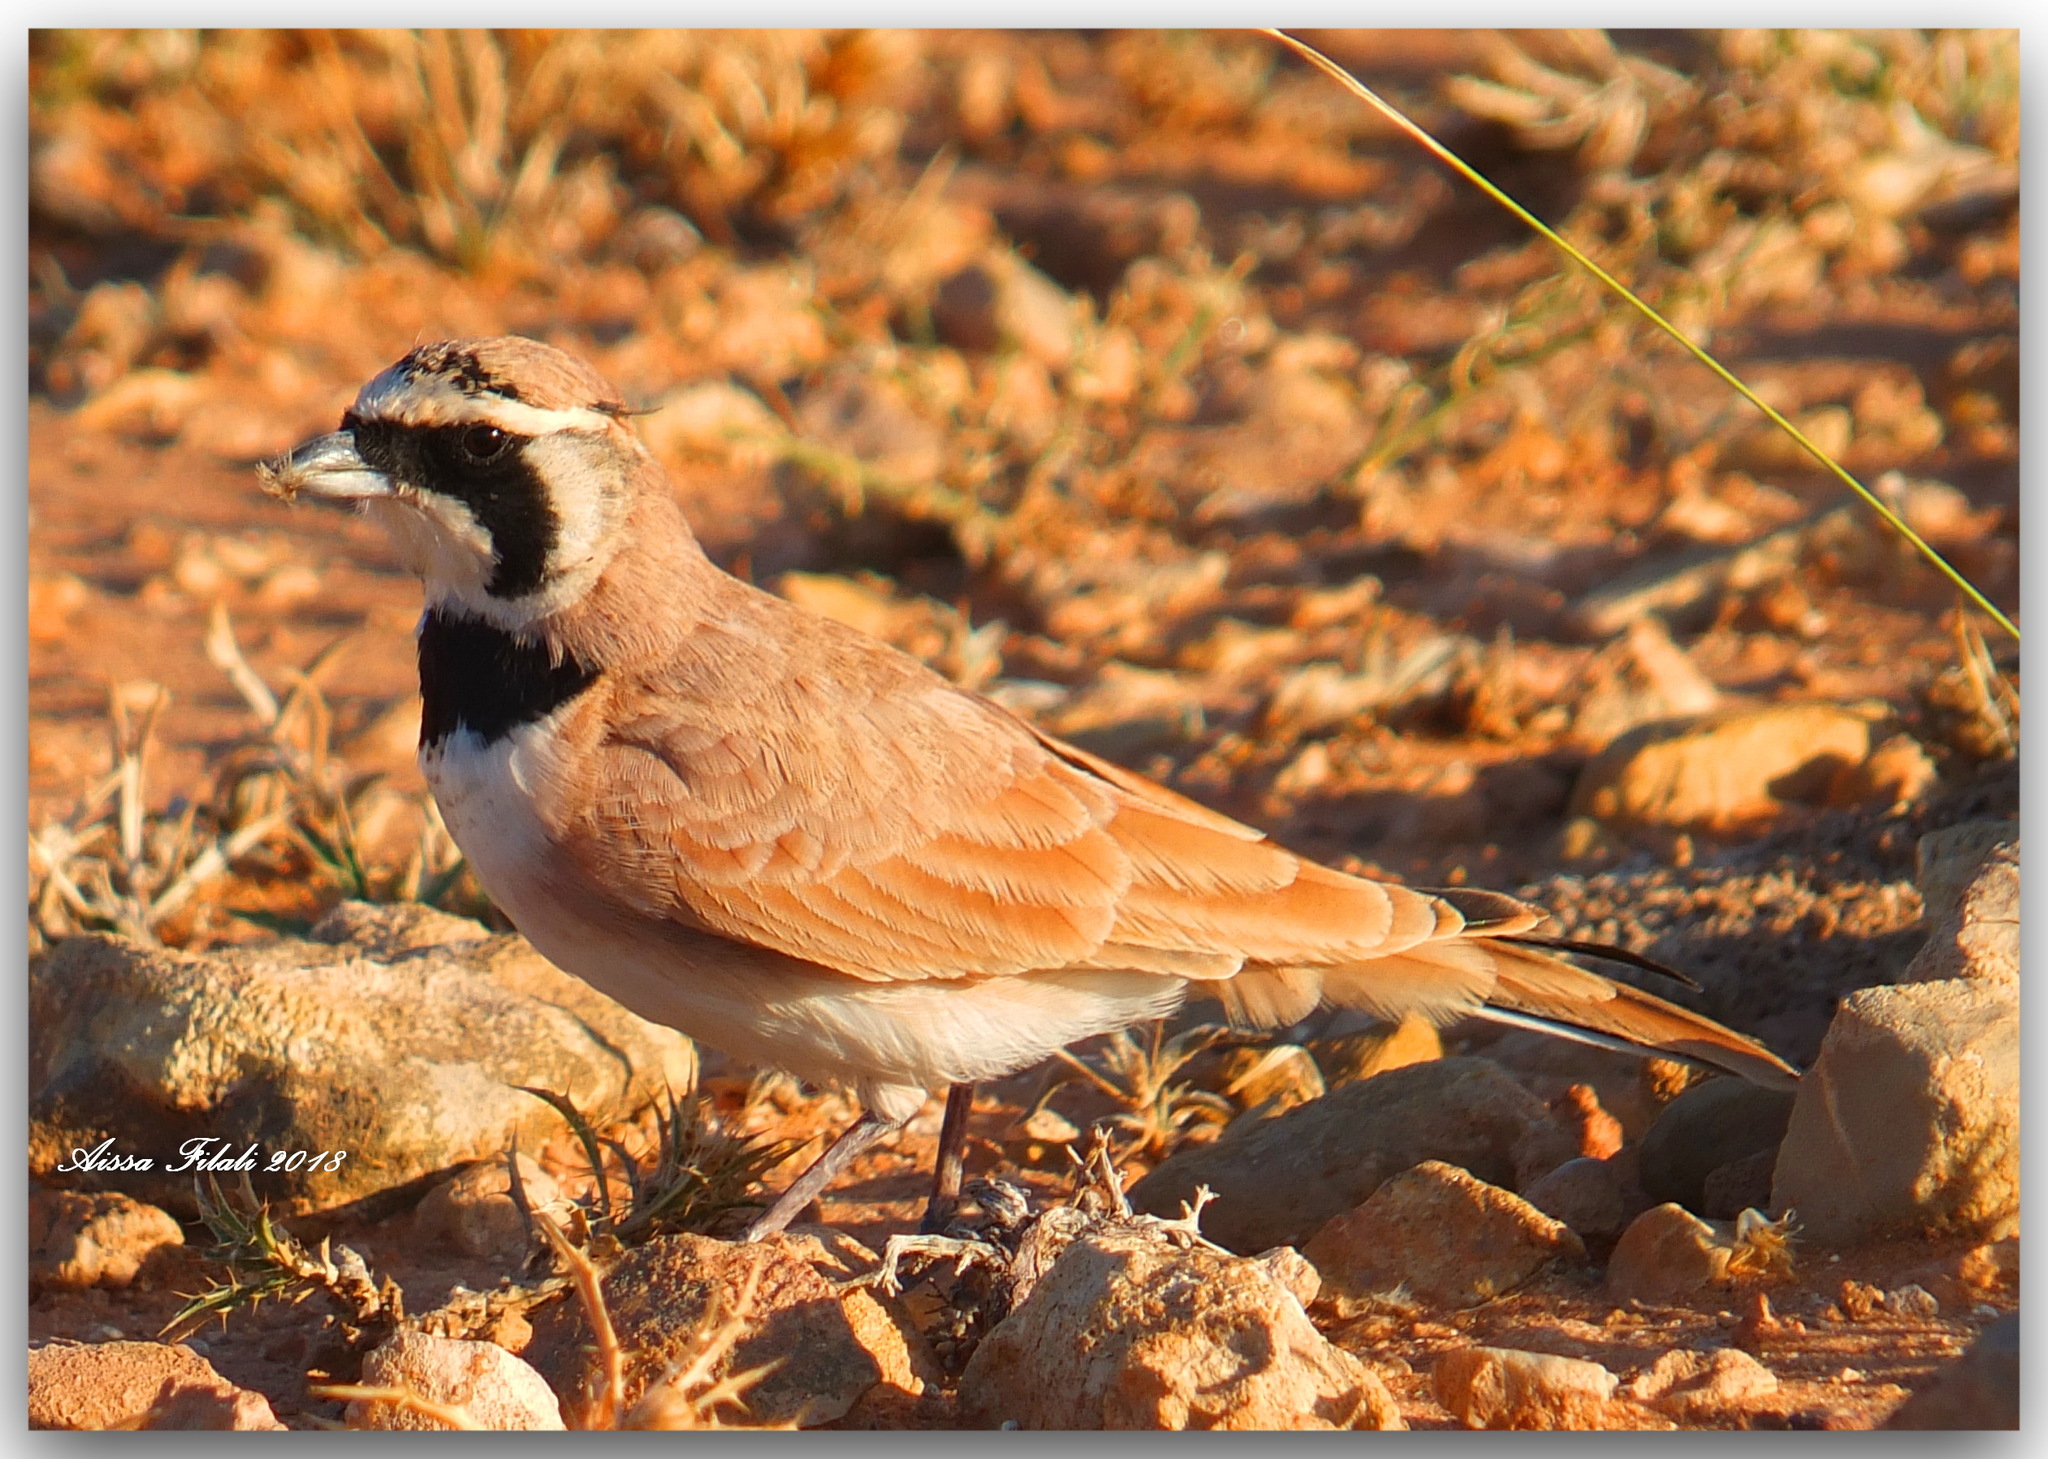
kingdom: Animalia
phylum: Chordata
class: Aves
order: Passeriformes
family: Alaudidae
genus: Eremophila
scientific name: Eremophila bilopha
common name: Temminck's lark
